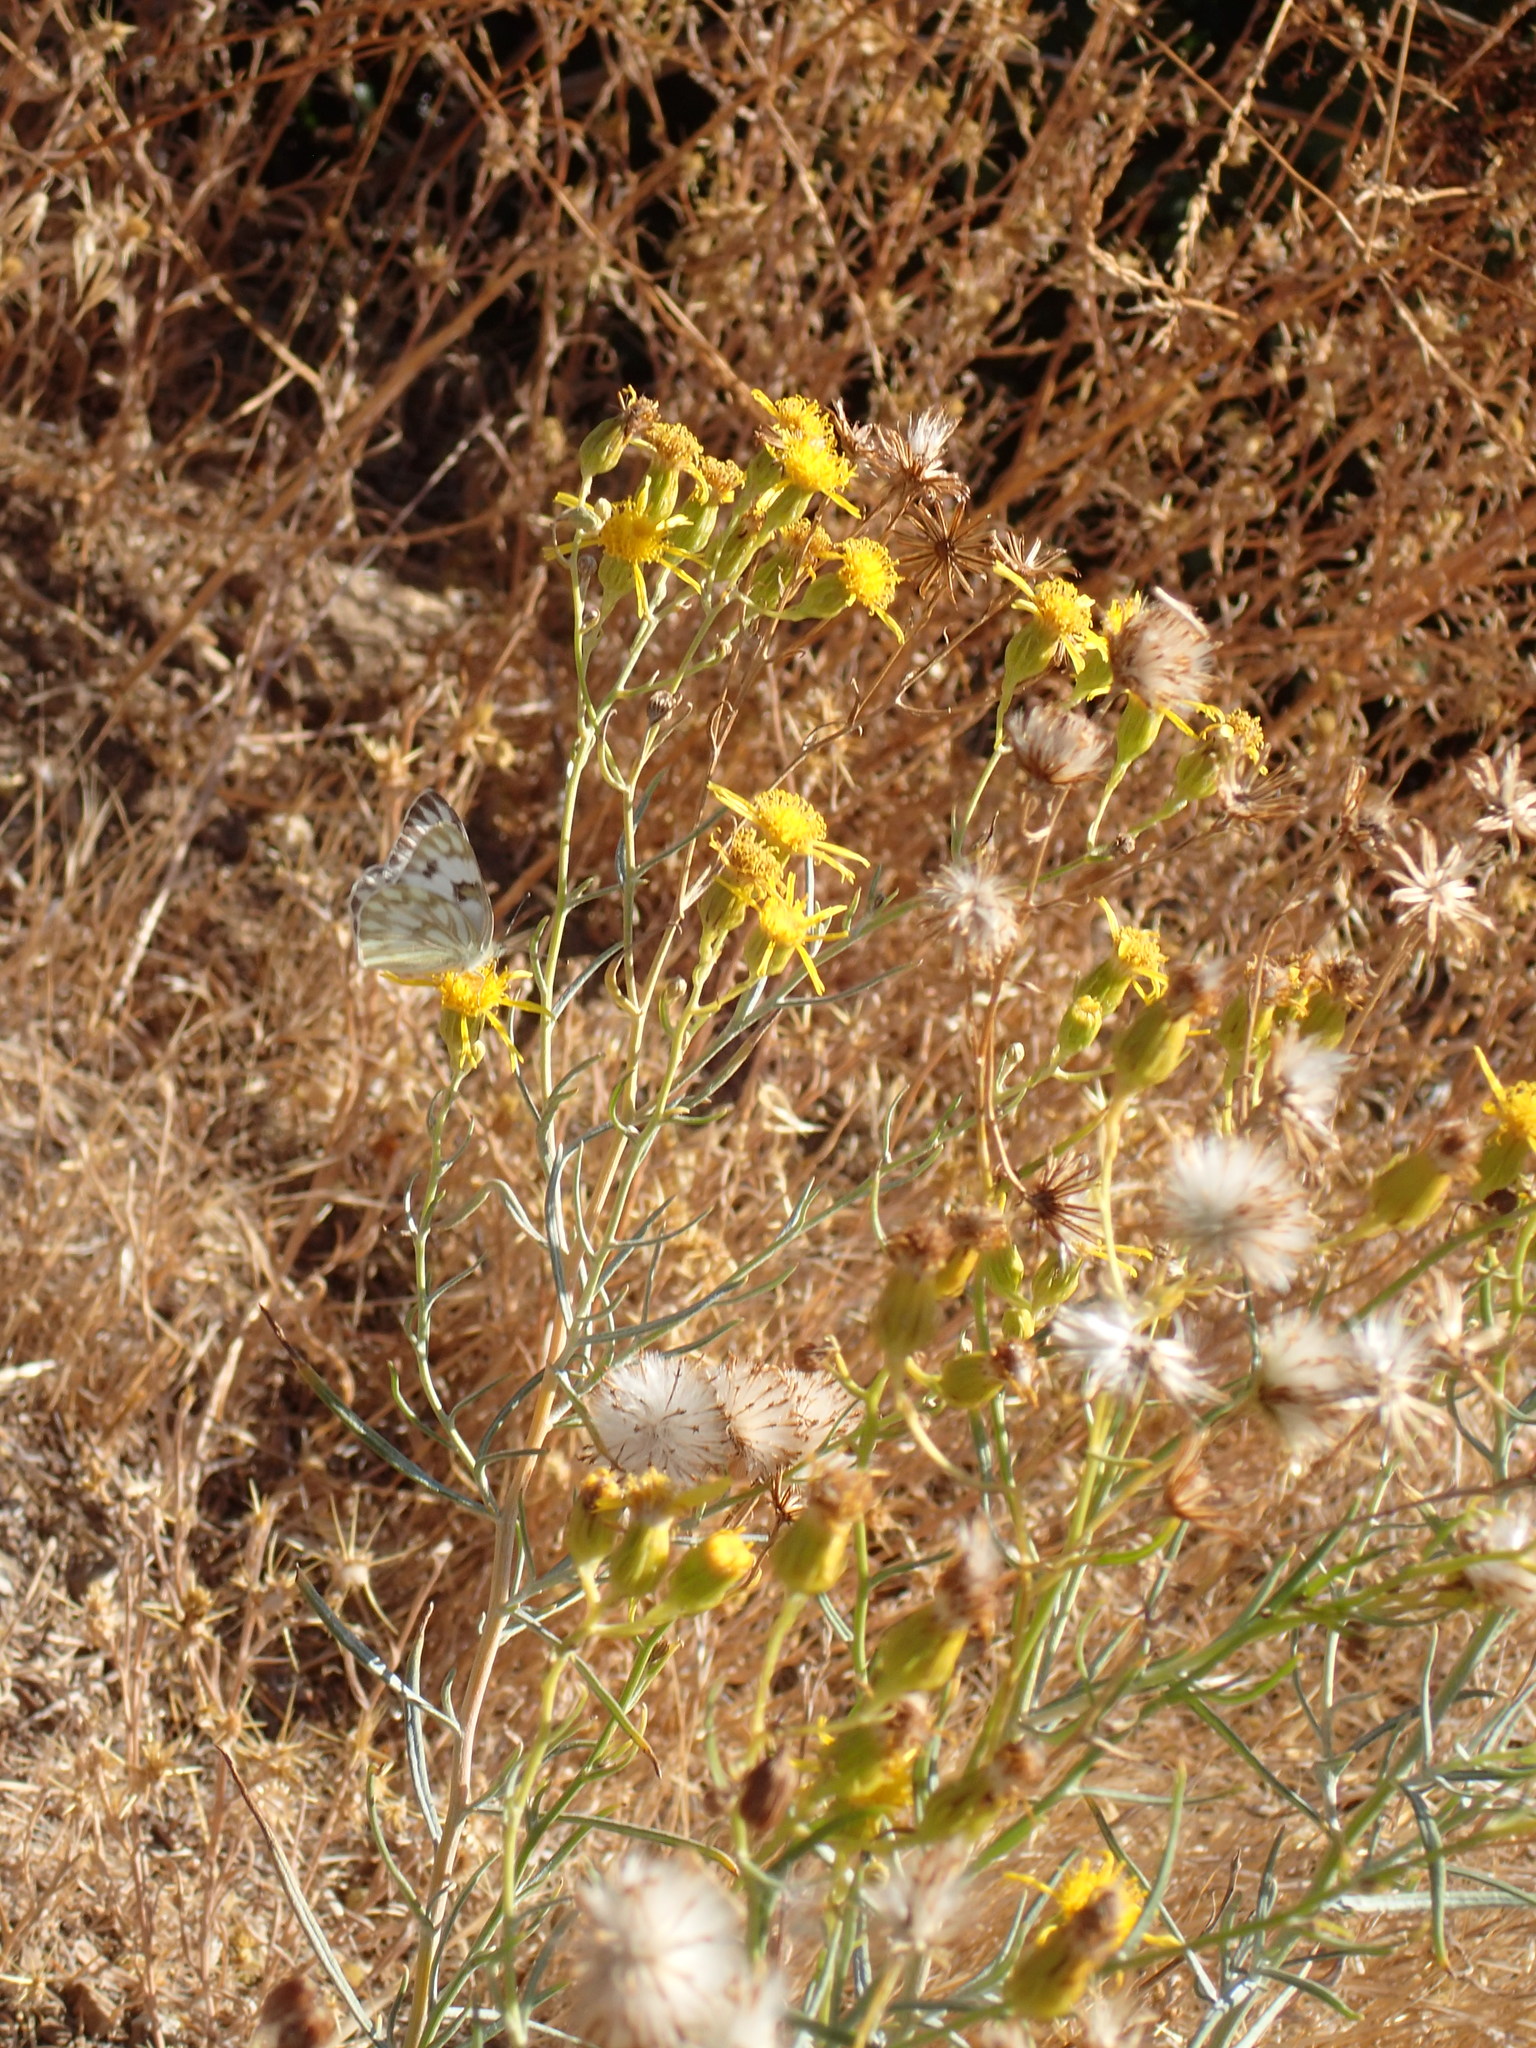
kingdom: Animalia
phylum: Arthropoda
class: Insecta
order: Lepidoptera
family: Pieridae
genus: Pontia
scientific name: Pontia protodice
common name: Checkered white
